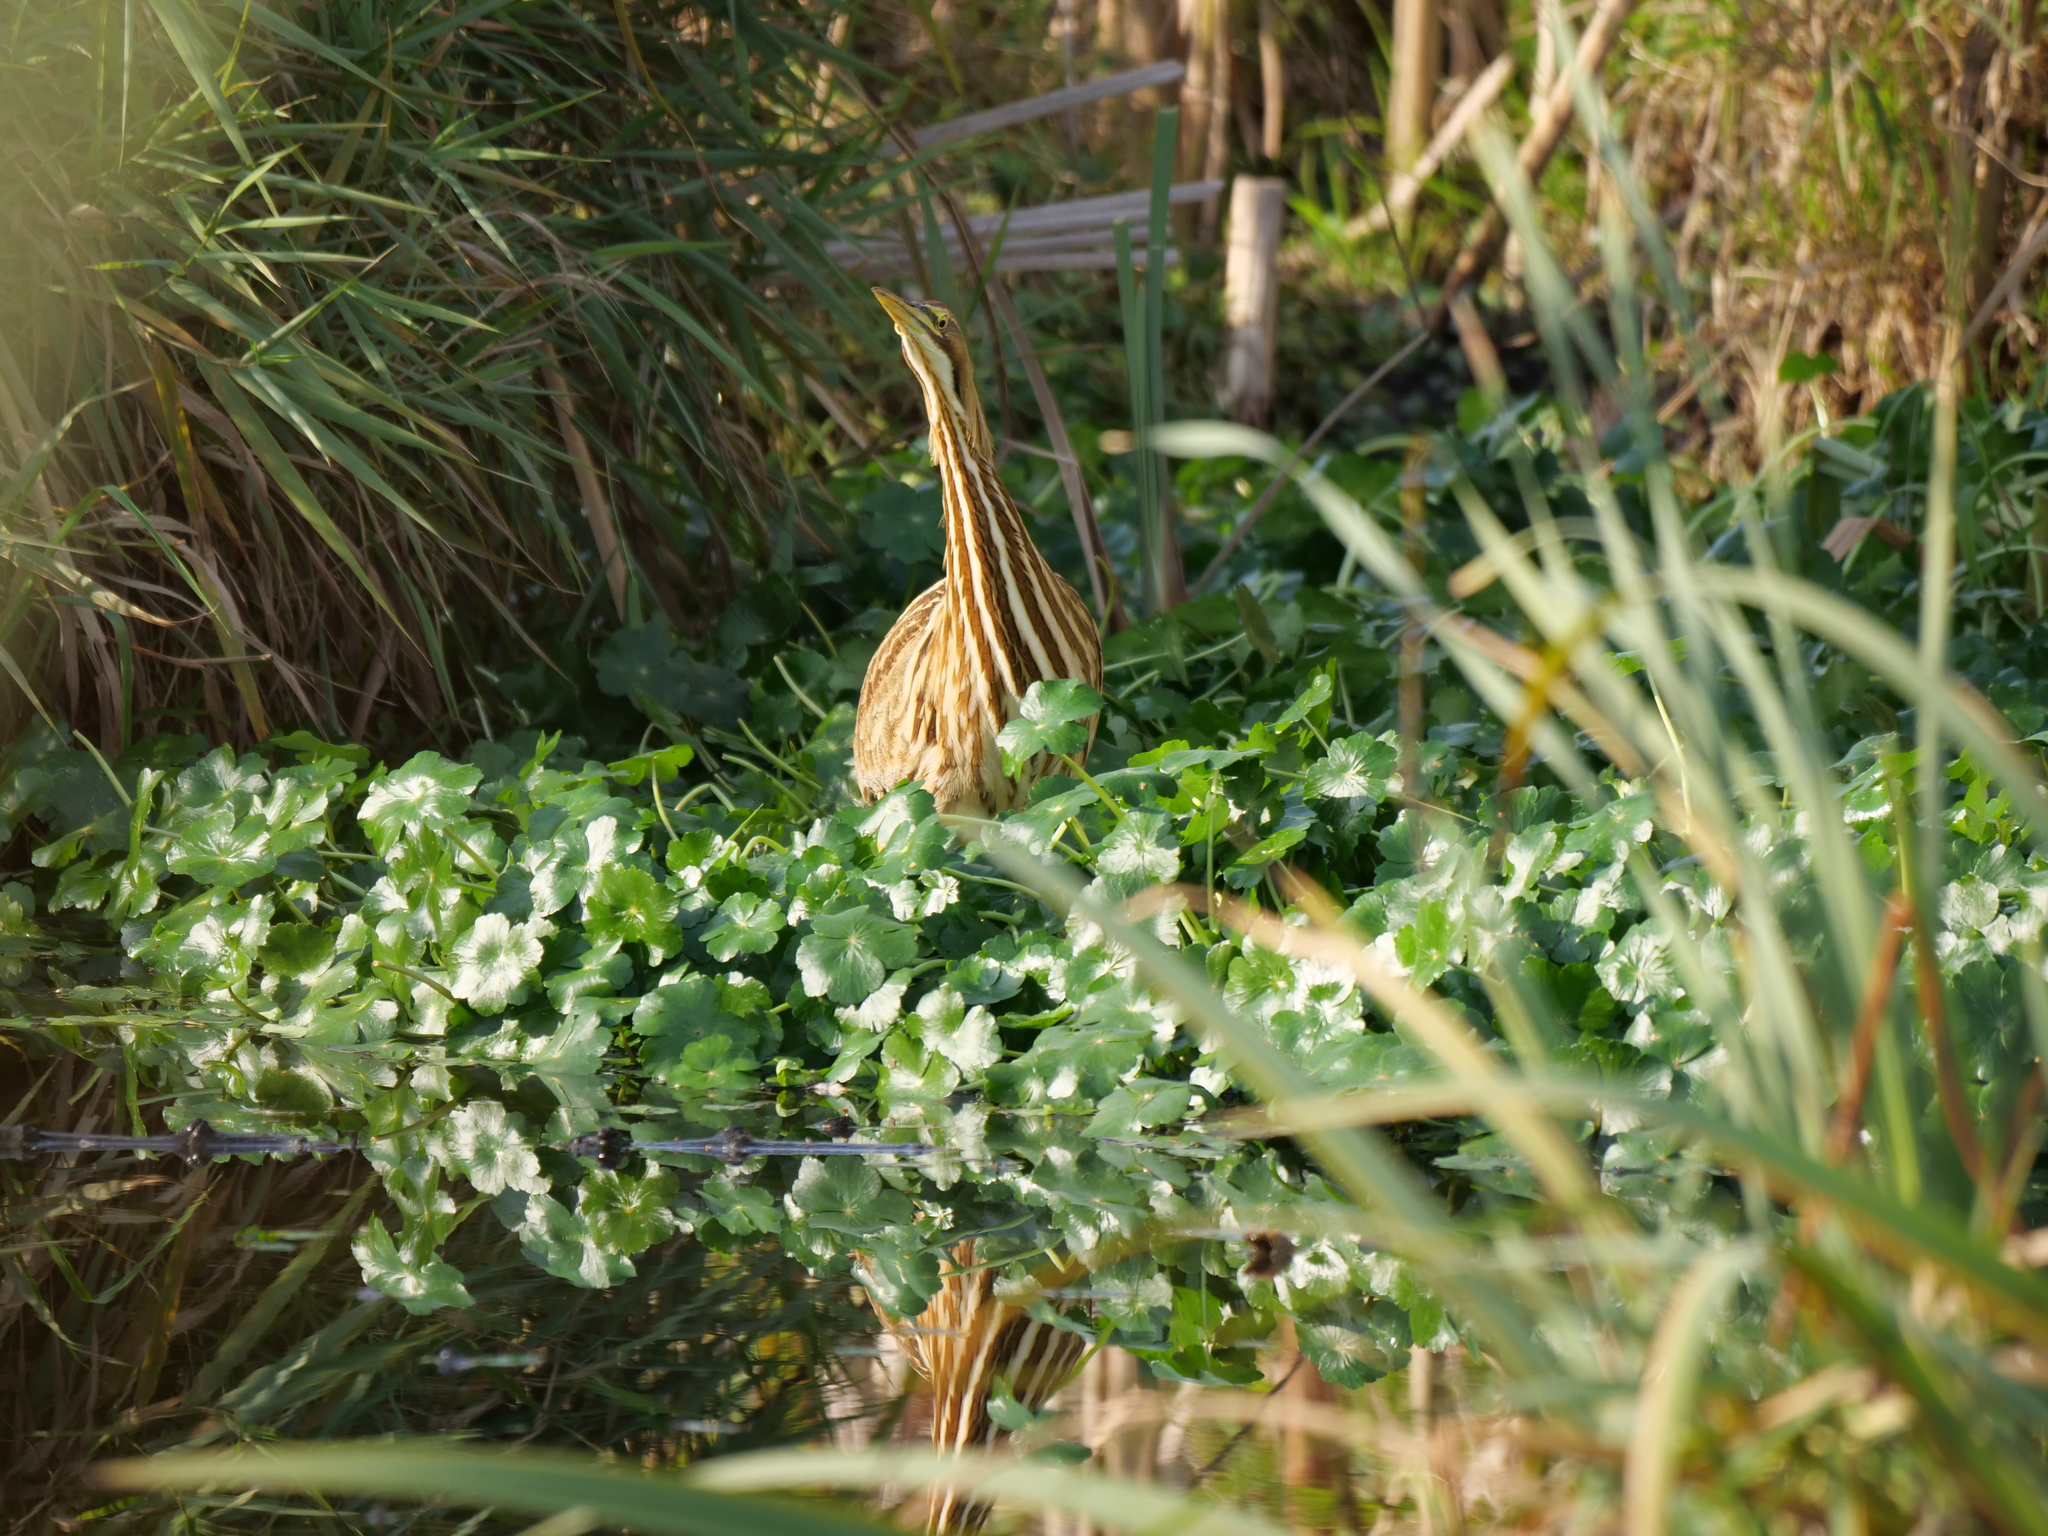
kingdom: Animalia
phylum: Chordata
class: Aves
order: Pelecaniformes
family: Ardeidae
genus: Botaurus
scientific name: Botaurus lentiginosus
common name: American bittern
